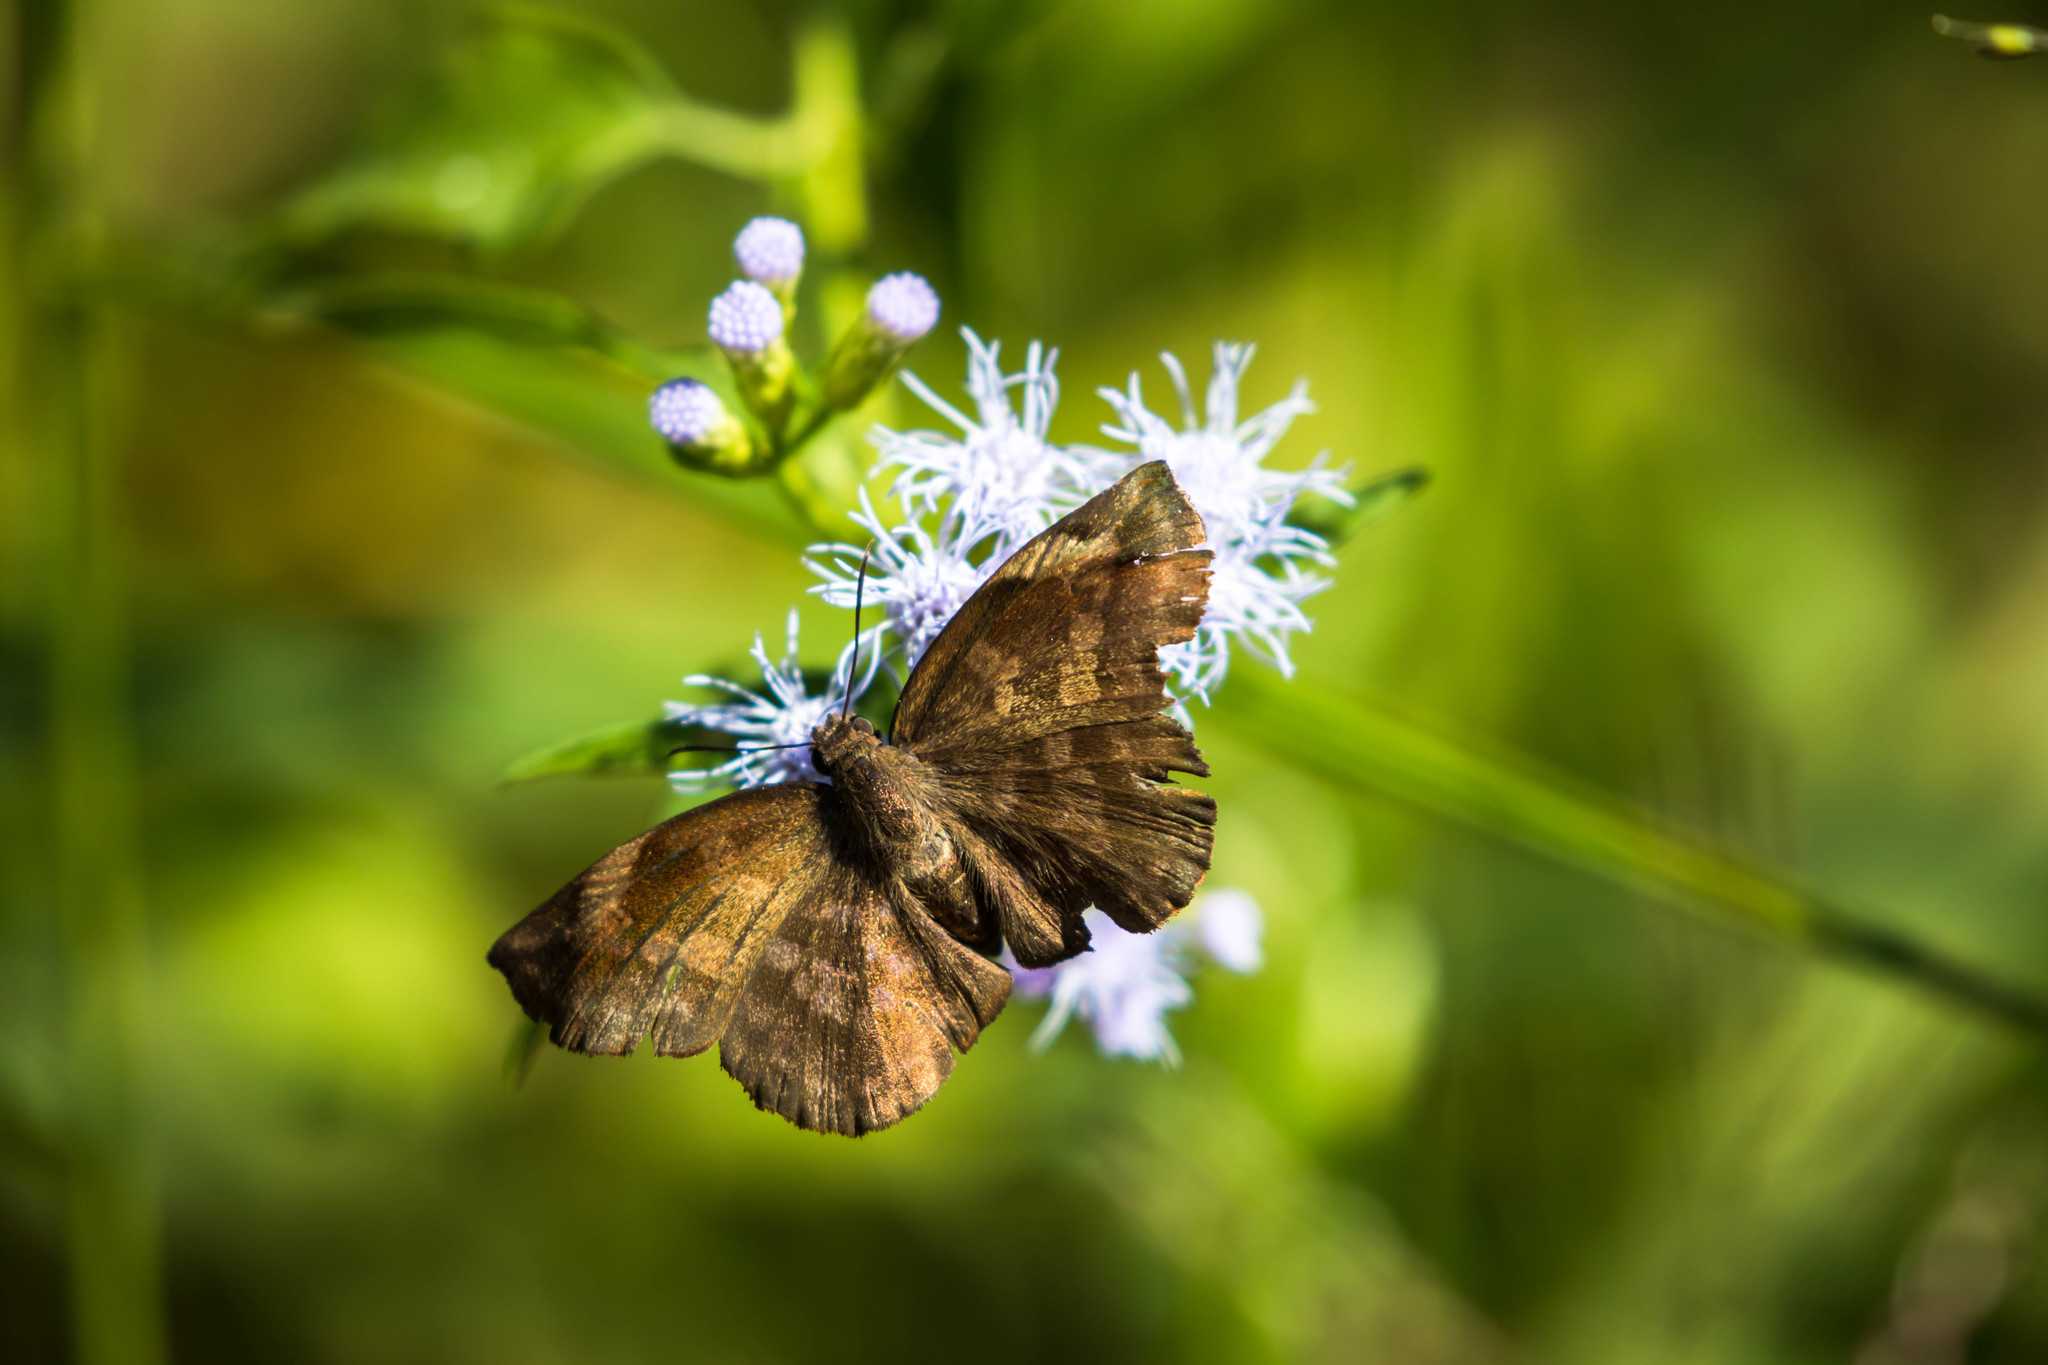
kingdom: Animalia
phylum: Arthropoda
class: Insecta
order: Lepidoptera
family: Hesperiidae
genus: Achlyodes
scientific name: Achlyodes thraso
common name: Sickle-winged skipper
